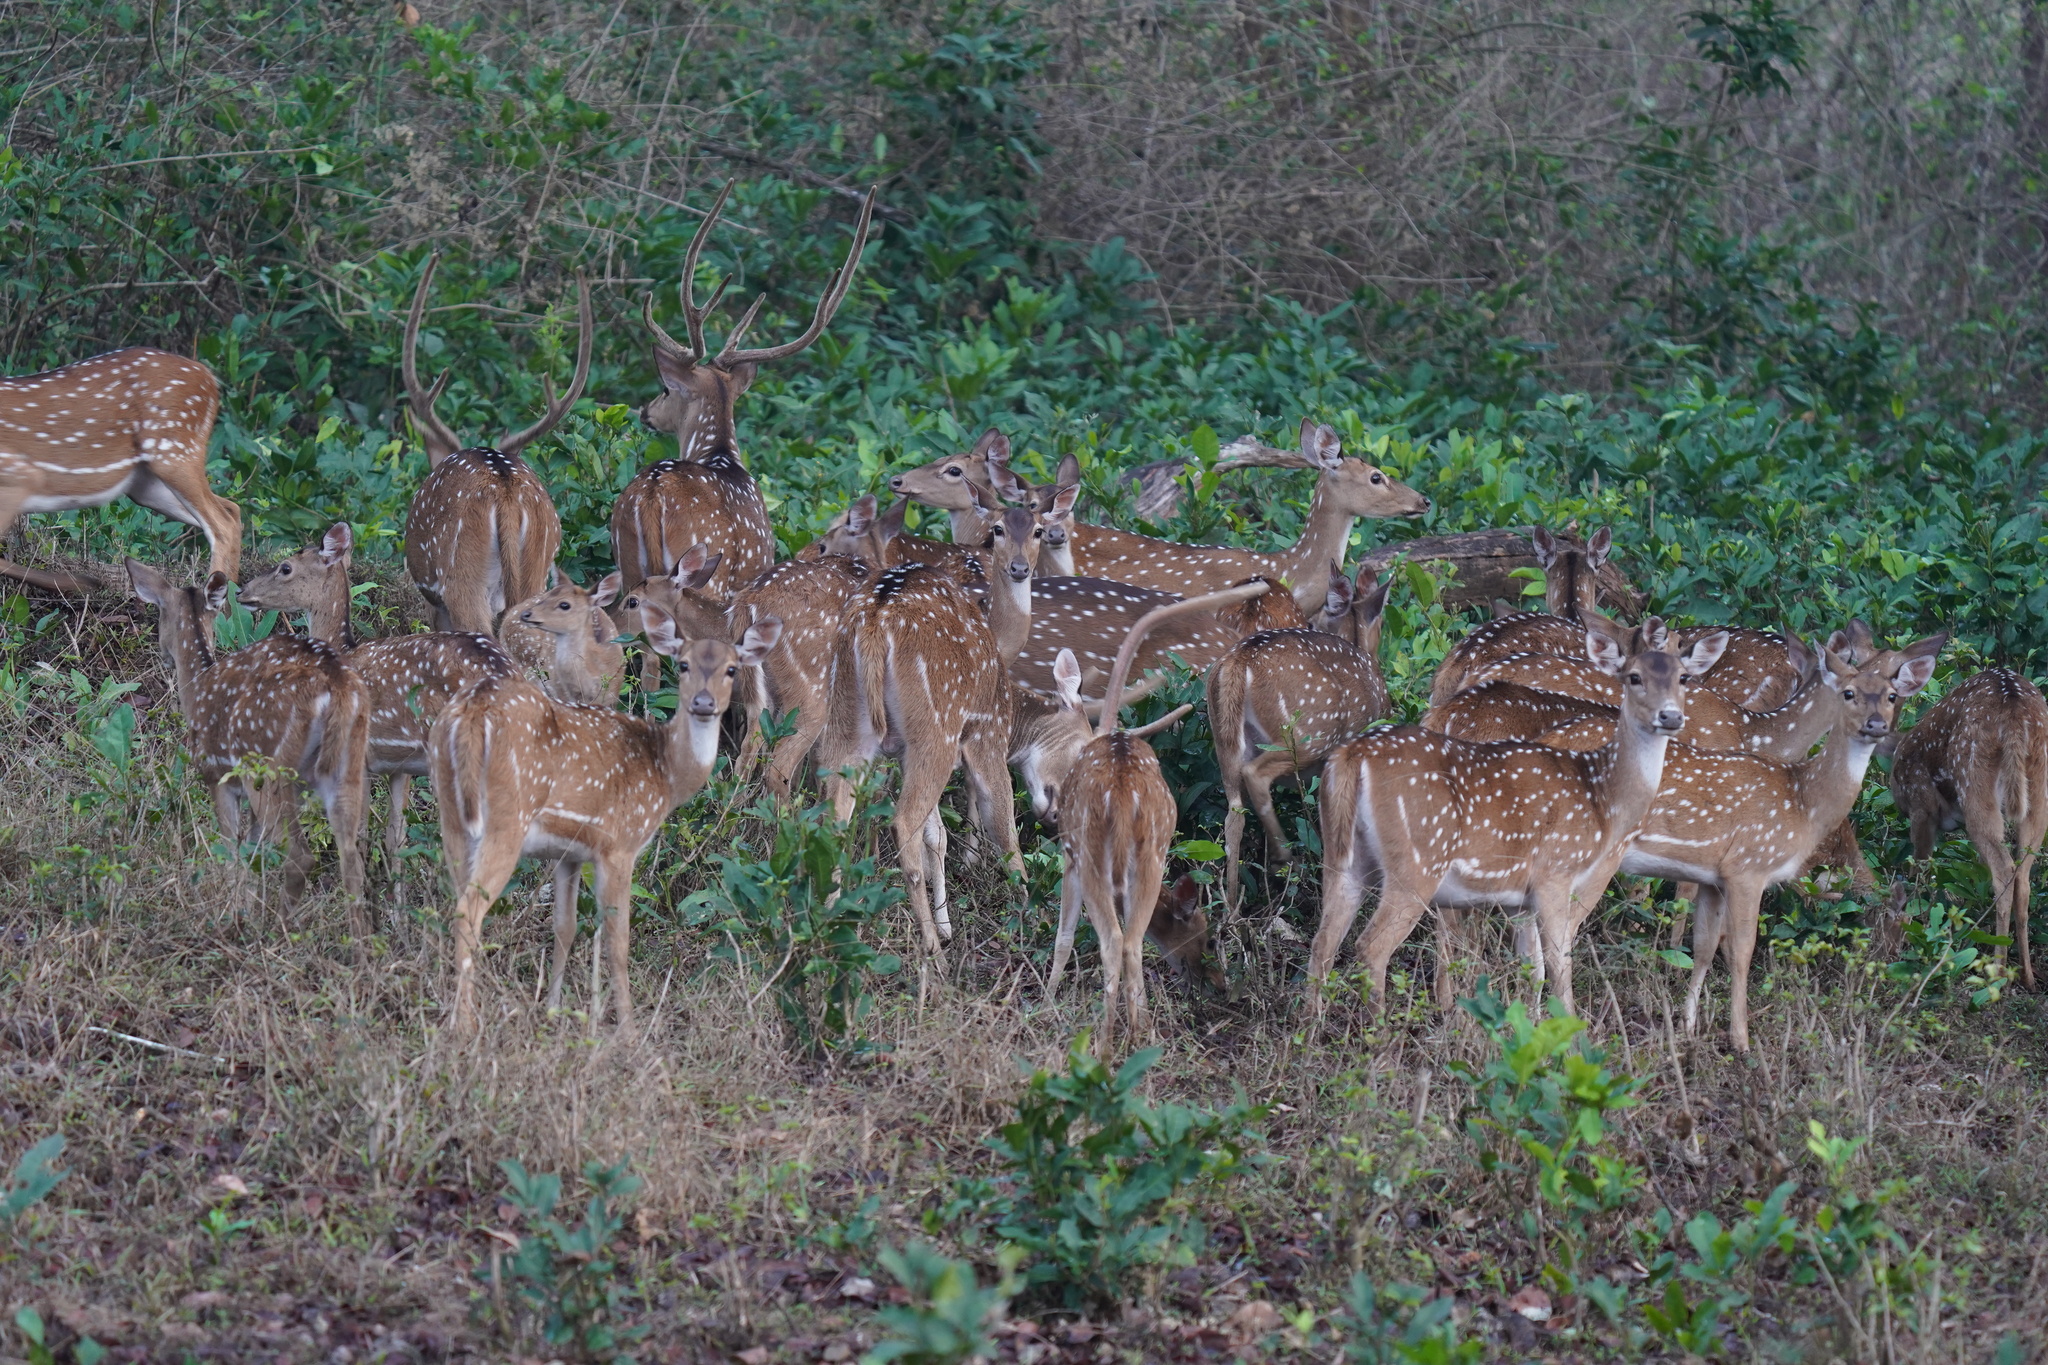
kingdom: Animalia
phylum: Chordata
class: Mammalia
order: Artiodactyla
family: Cervidae
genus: Axis
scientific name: Axis axis
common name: Chital
